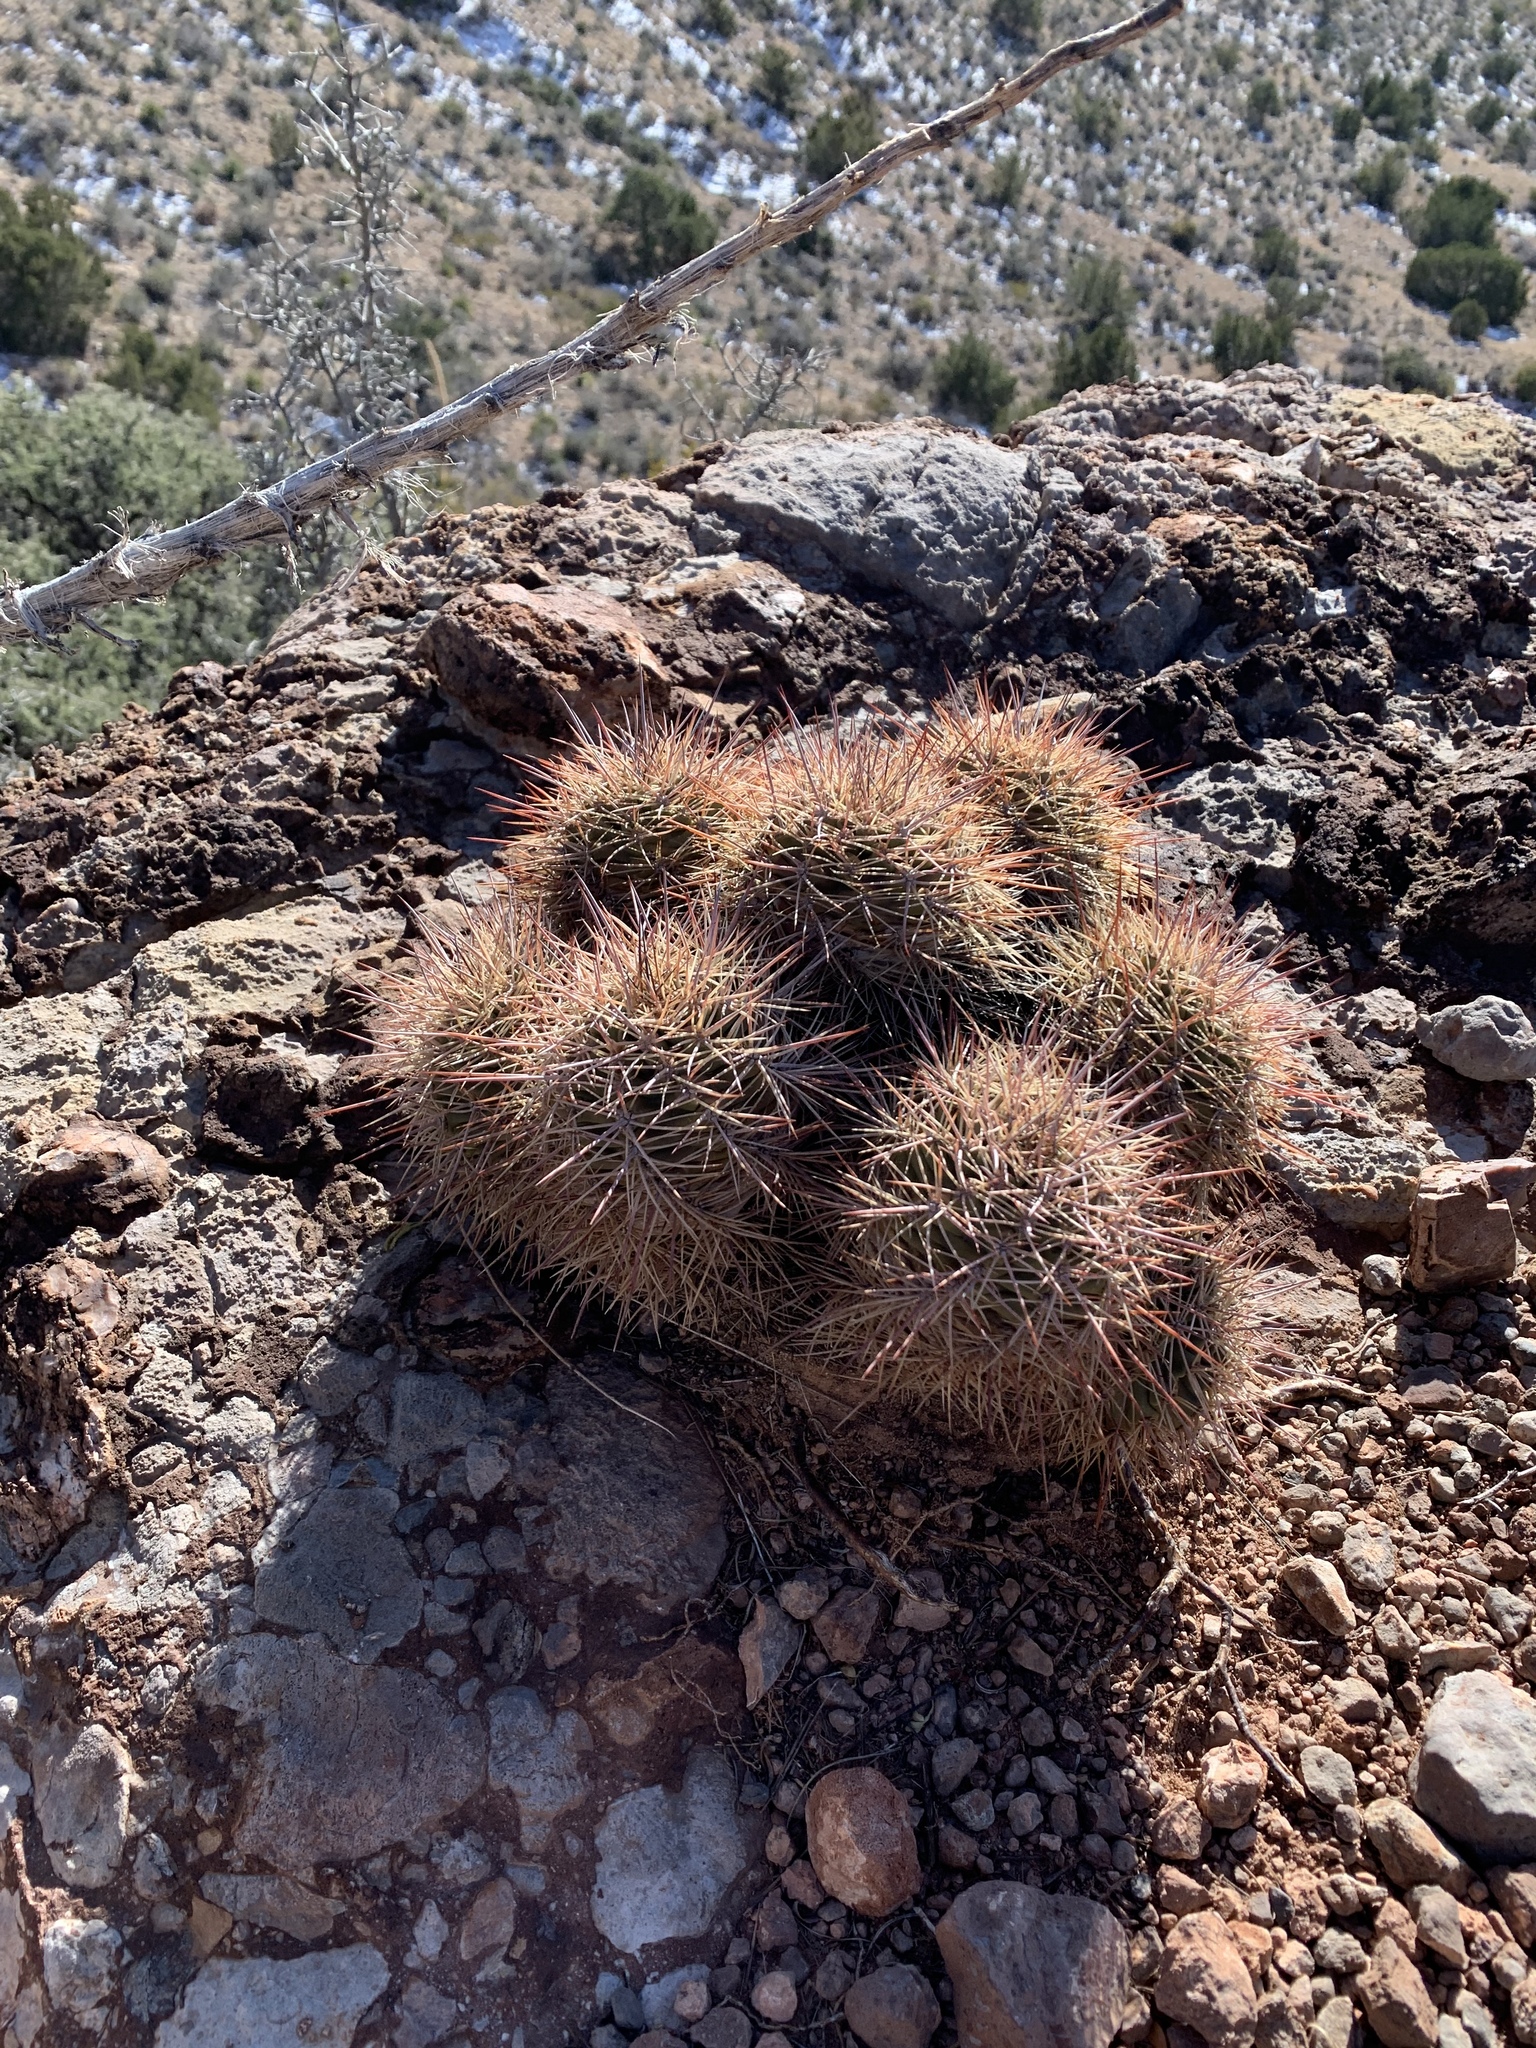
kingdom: Plantae
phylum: Tracheophyta
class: Magnoliopsida
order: Caryophyllales
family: Cactaceae
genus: Echinocereus
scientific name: Echinocereus coccineus
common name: Scarlet hedgehog cactus
